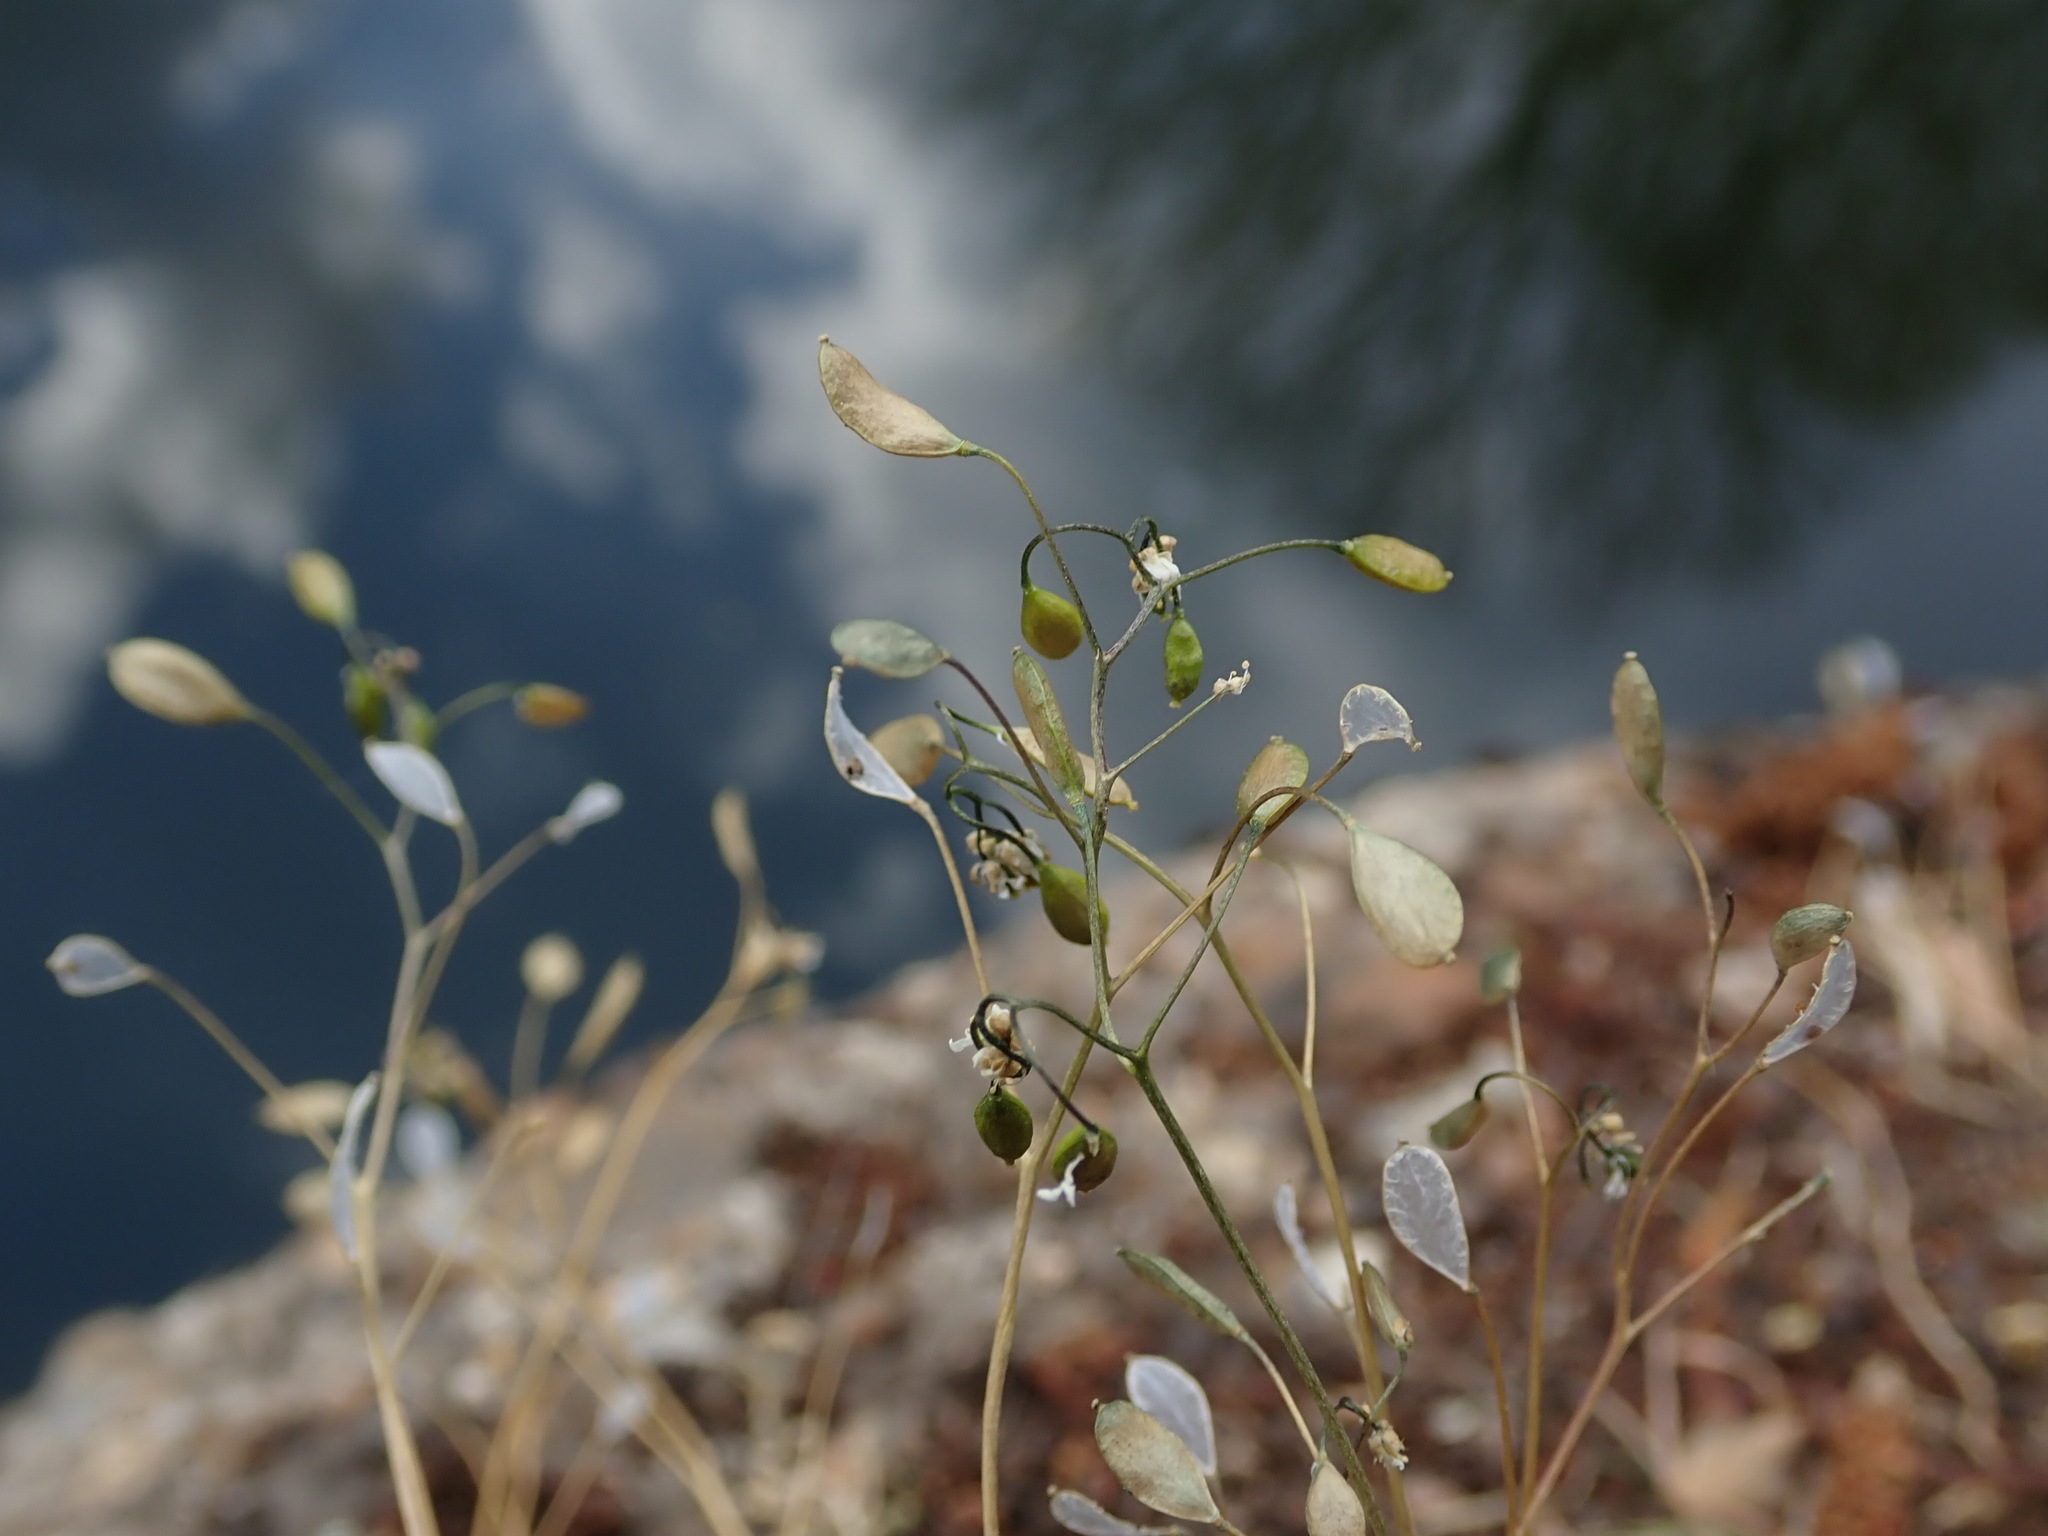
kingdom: Plantae
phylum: Tracheophyta
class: Magnoliopsida
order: Brassicales
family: Brassicaceae
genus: Draba
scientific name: Draba verna
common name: Spring draba
